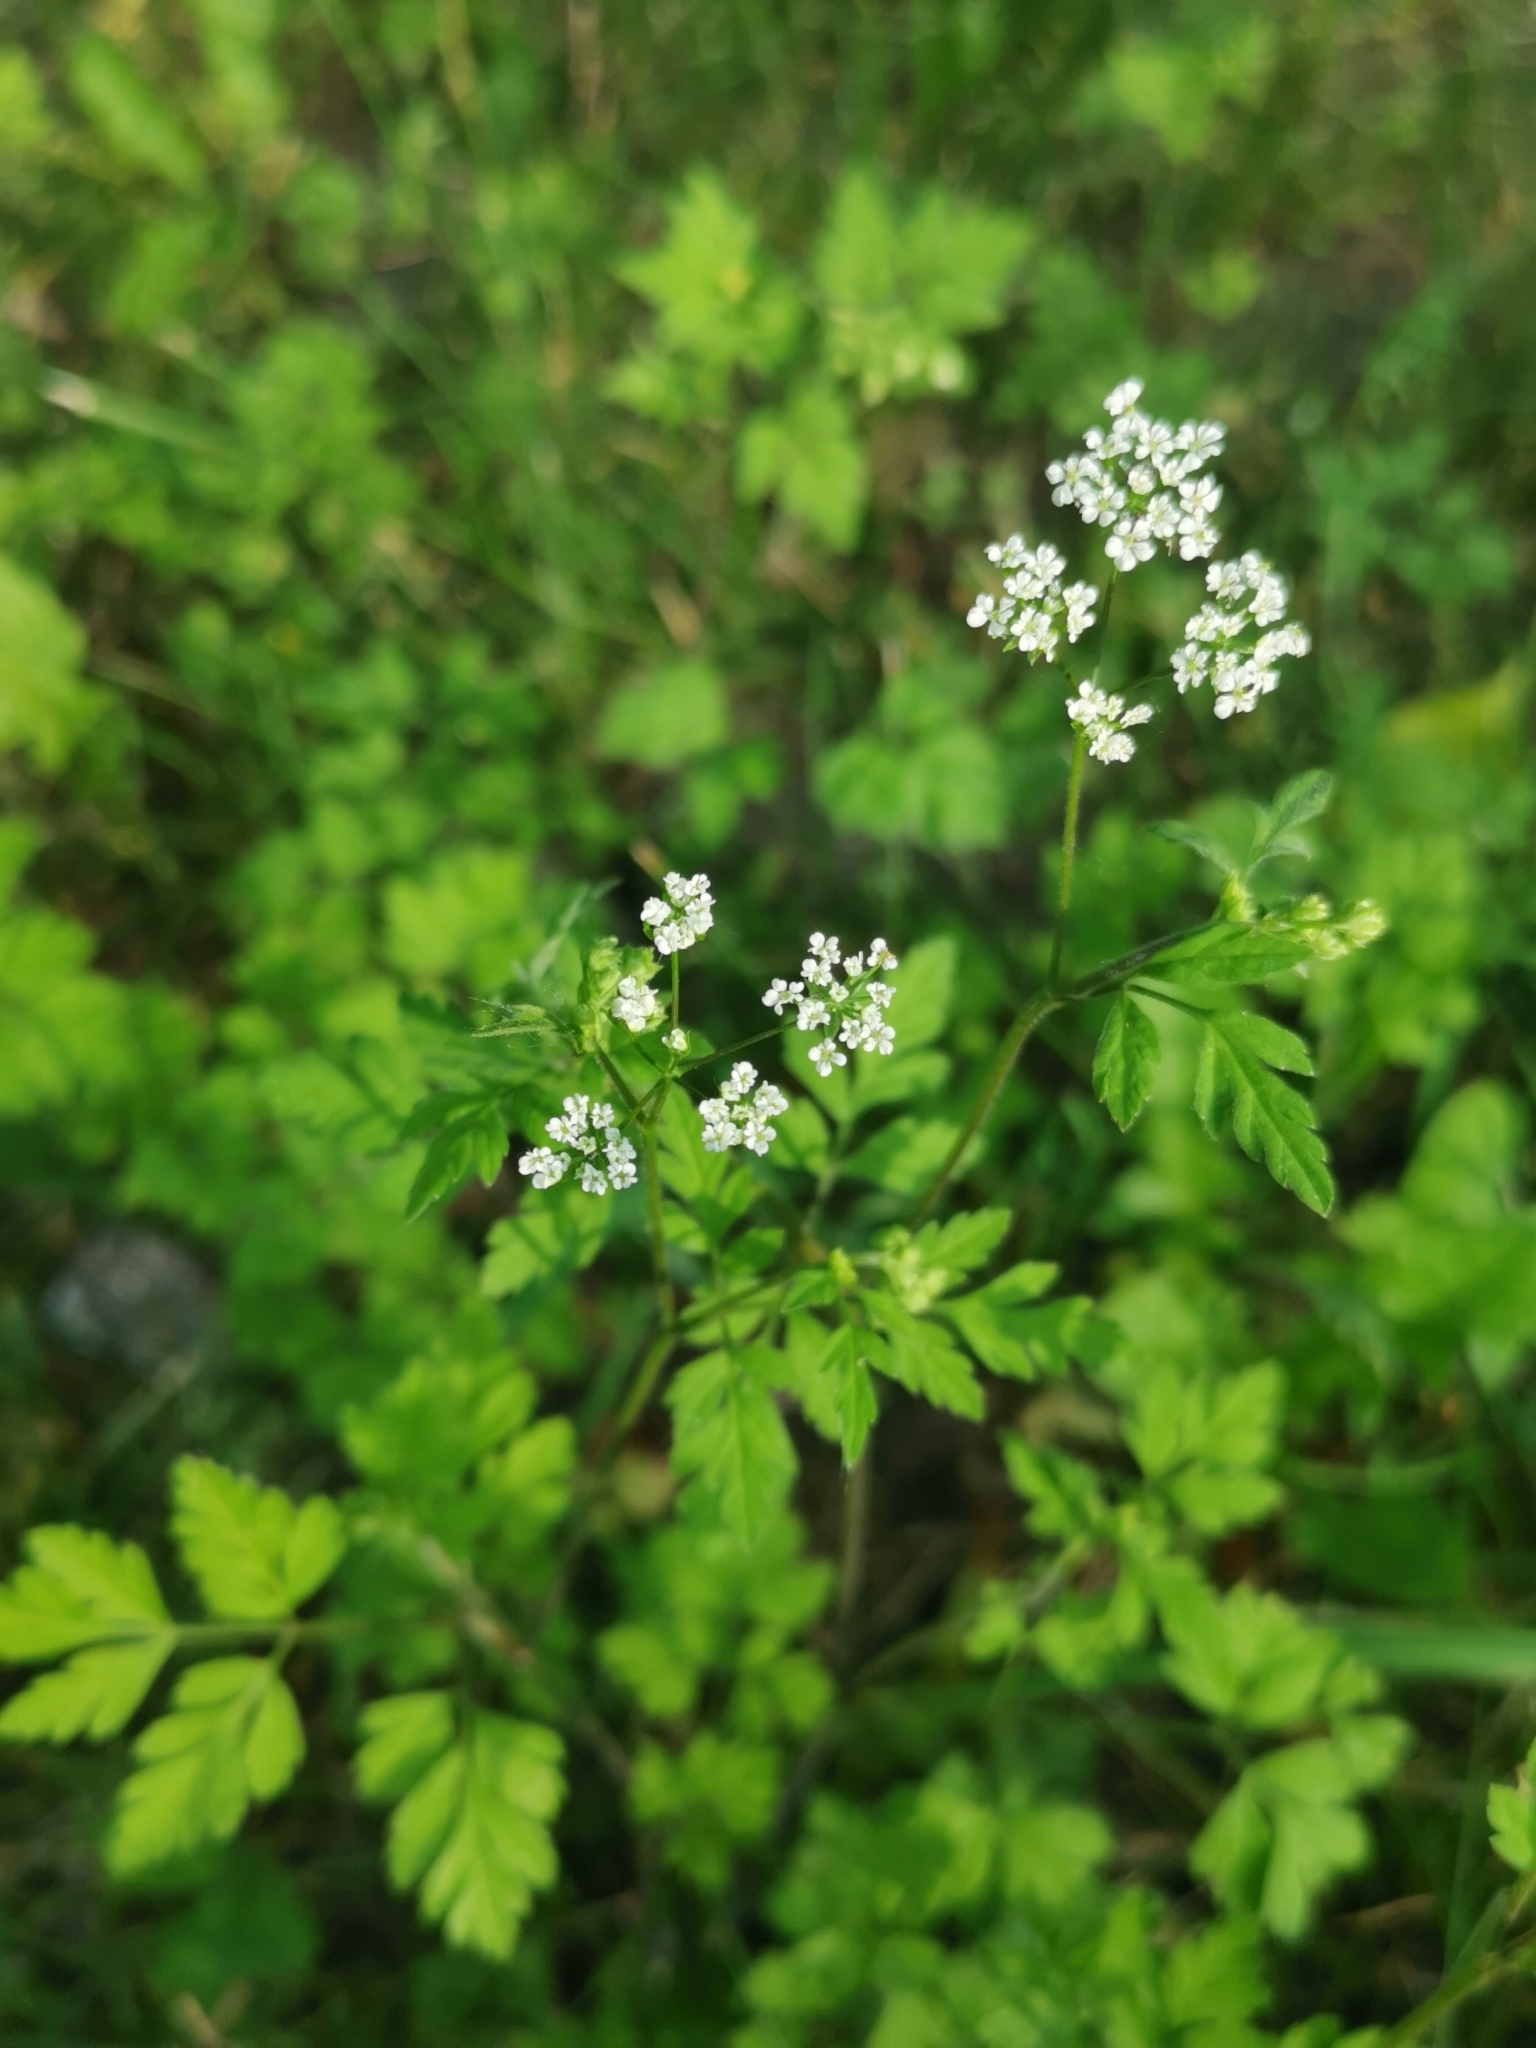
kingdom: Plantae
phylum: Tracheophyta
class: Magnoliopsida
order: Apiales
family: Apiaceae
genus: Chaerophyllum
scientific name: Chaerophyllum temulum
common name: Rough chervil
